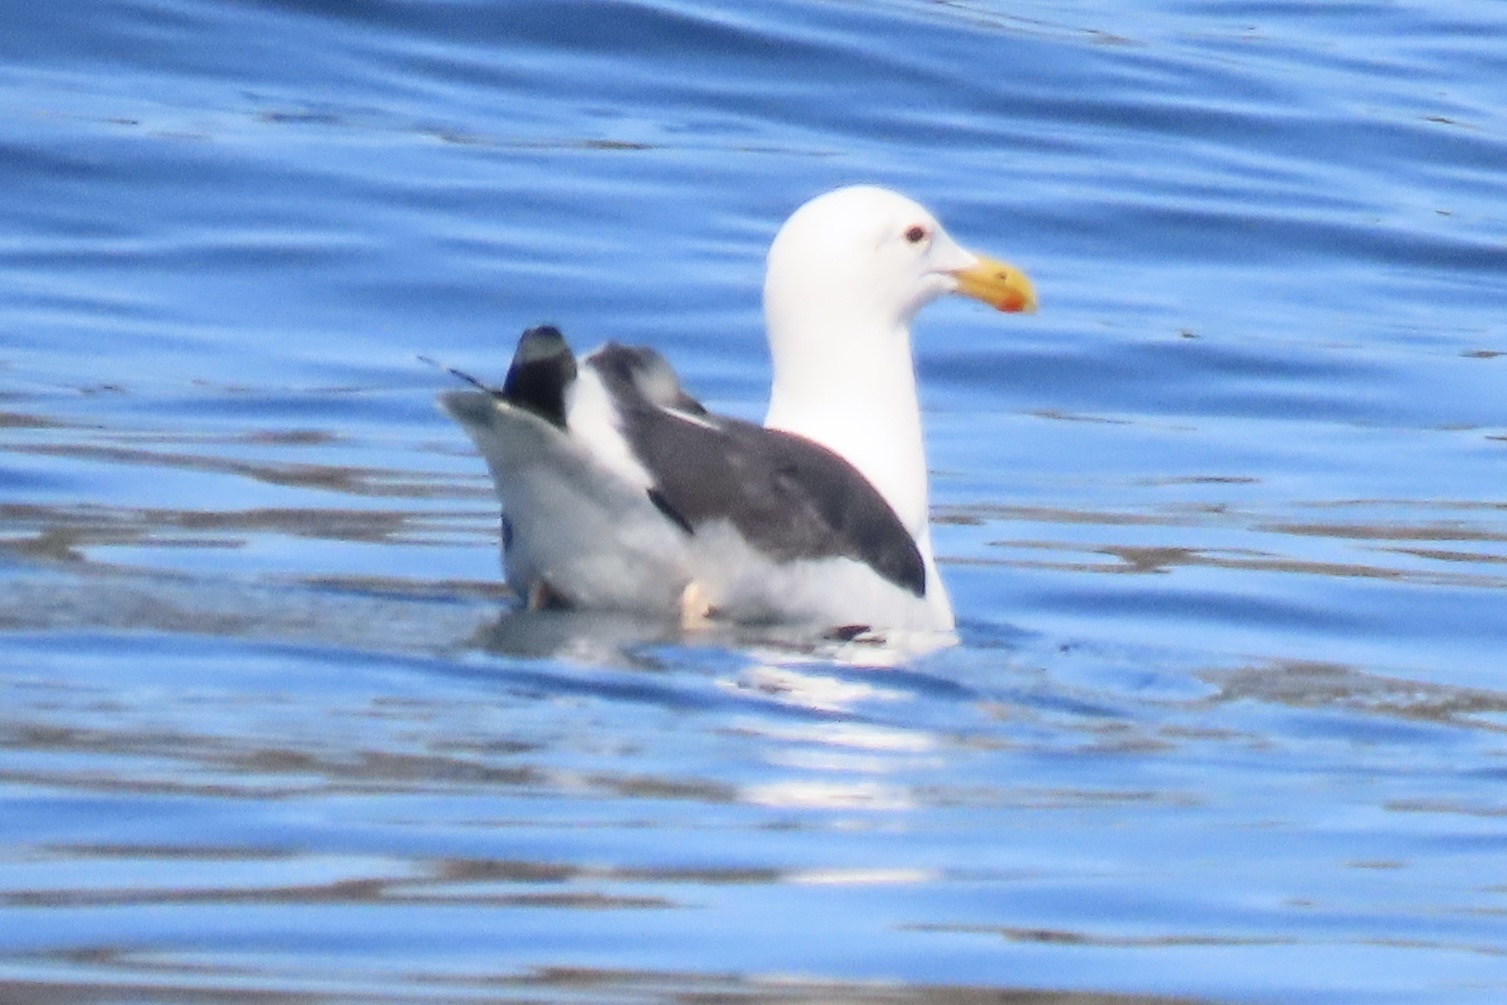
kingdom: Animalia
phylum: Chordata
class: Aves
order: Charadriiformes
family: Laridae
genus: Larus
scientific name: Larus occidentalis
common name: Western gull
